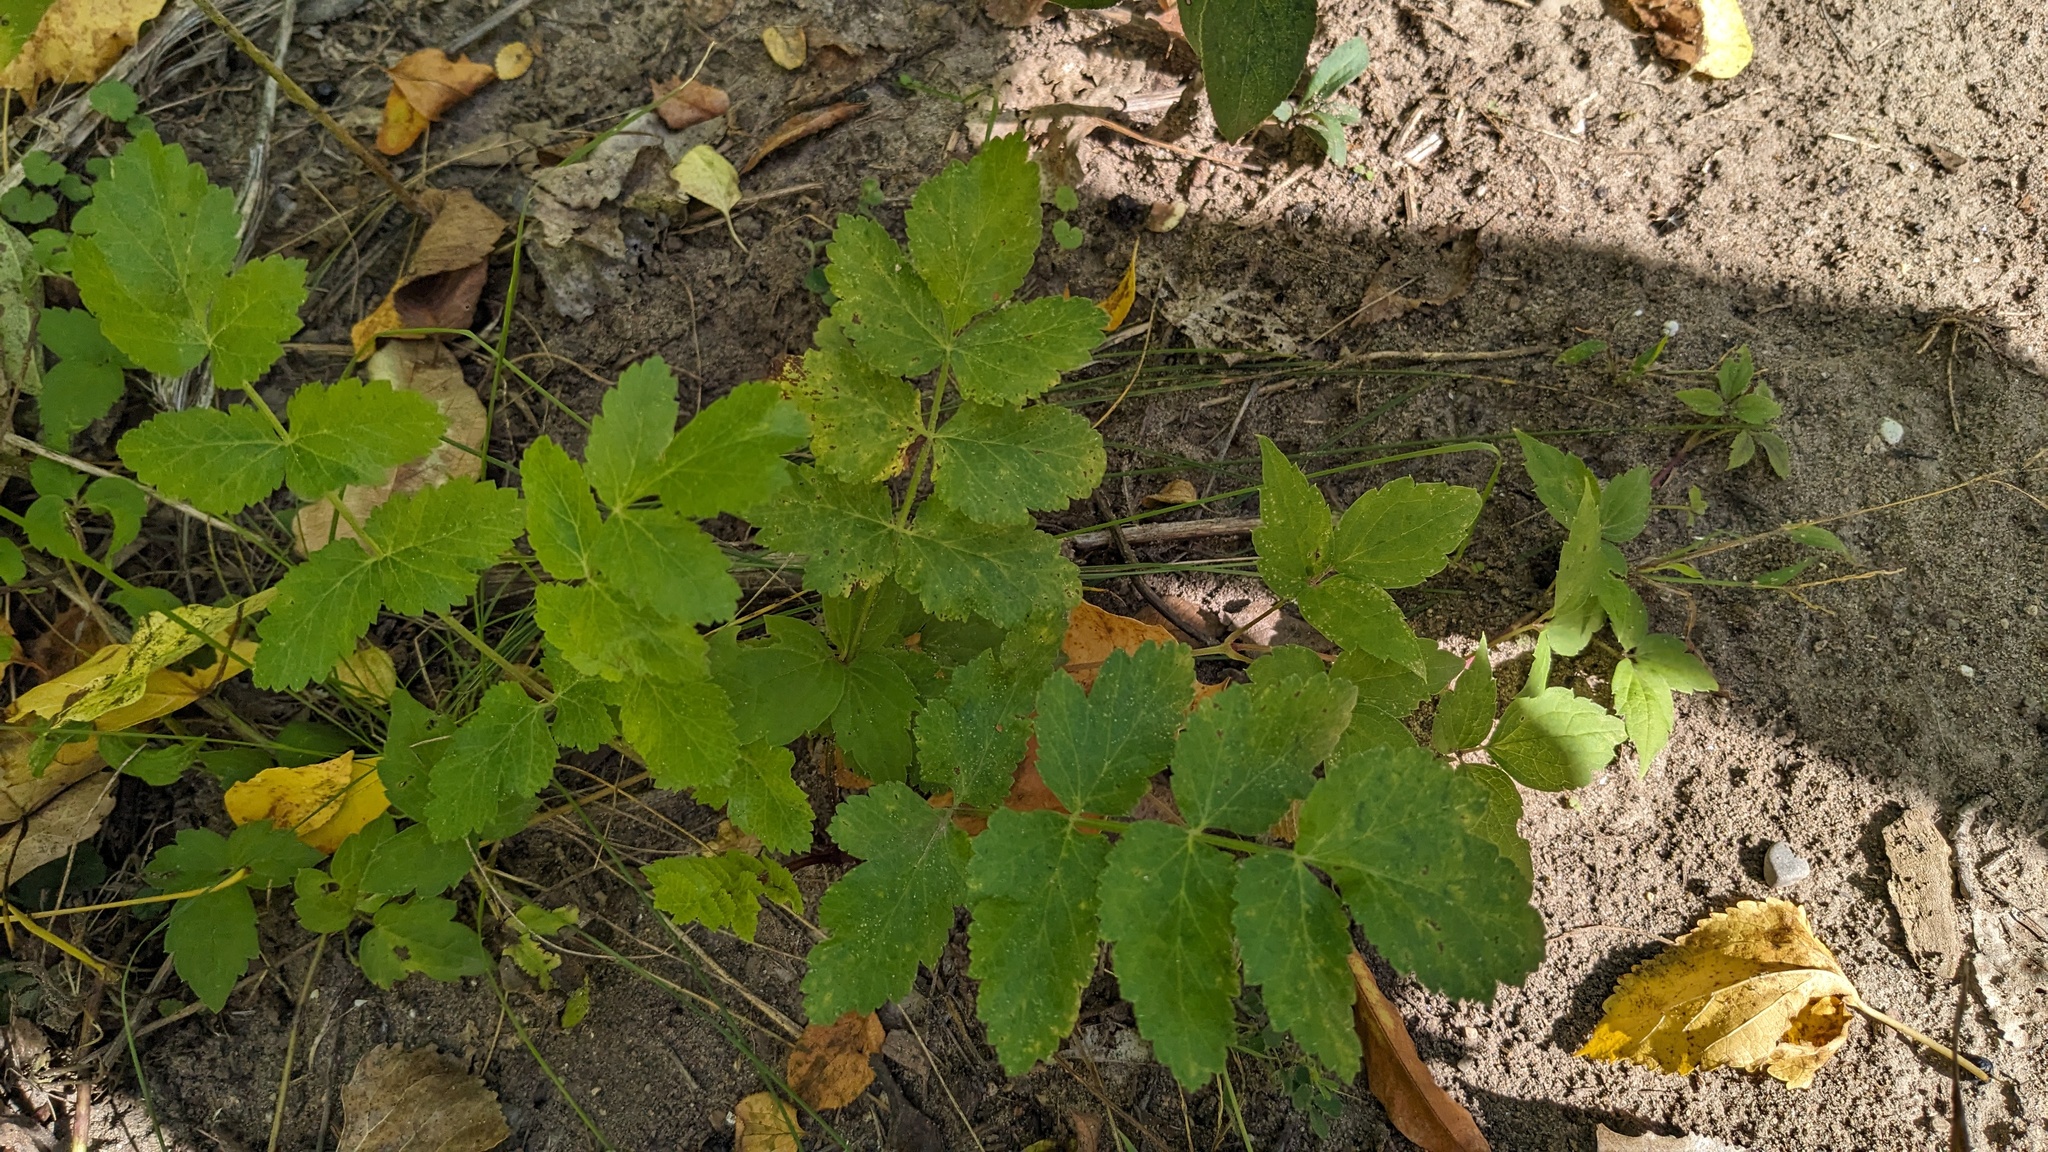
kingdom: Plantae
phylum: Tracheophyta
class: Magnoliopsida
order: Apiales
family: Apiaceae
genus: Pastinaca
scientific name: Pastinaca sativa
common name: Wild parsnip
